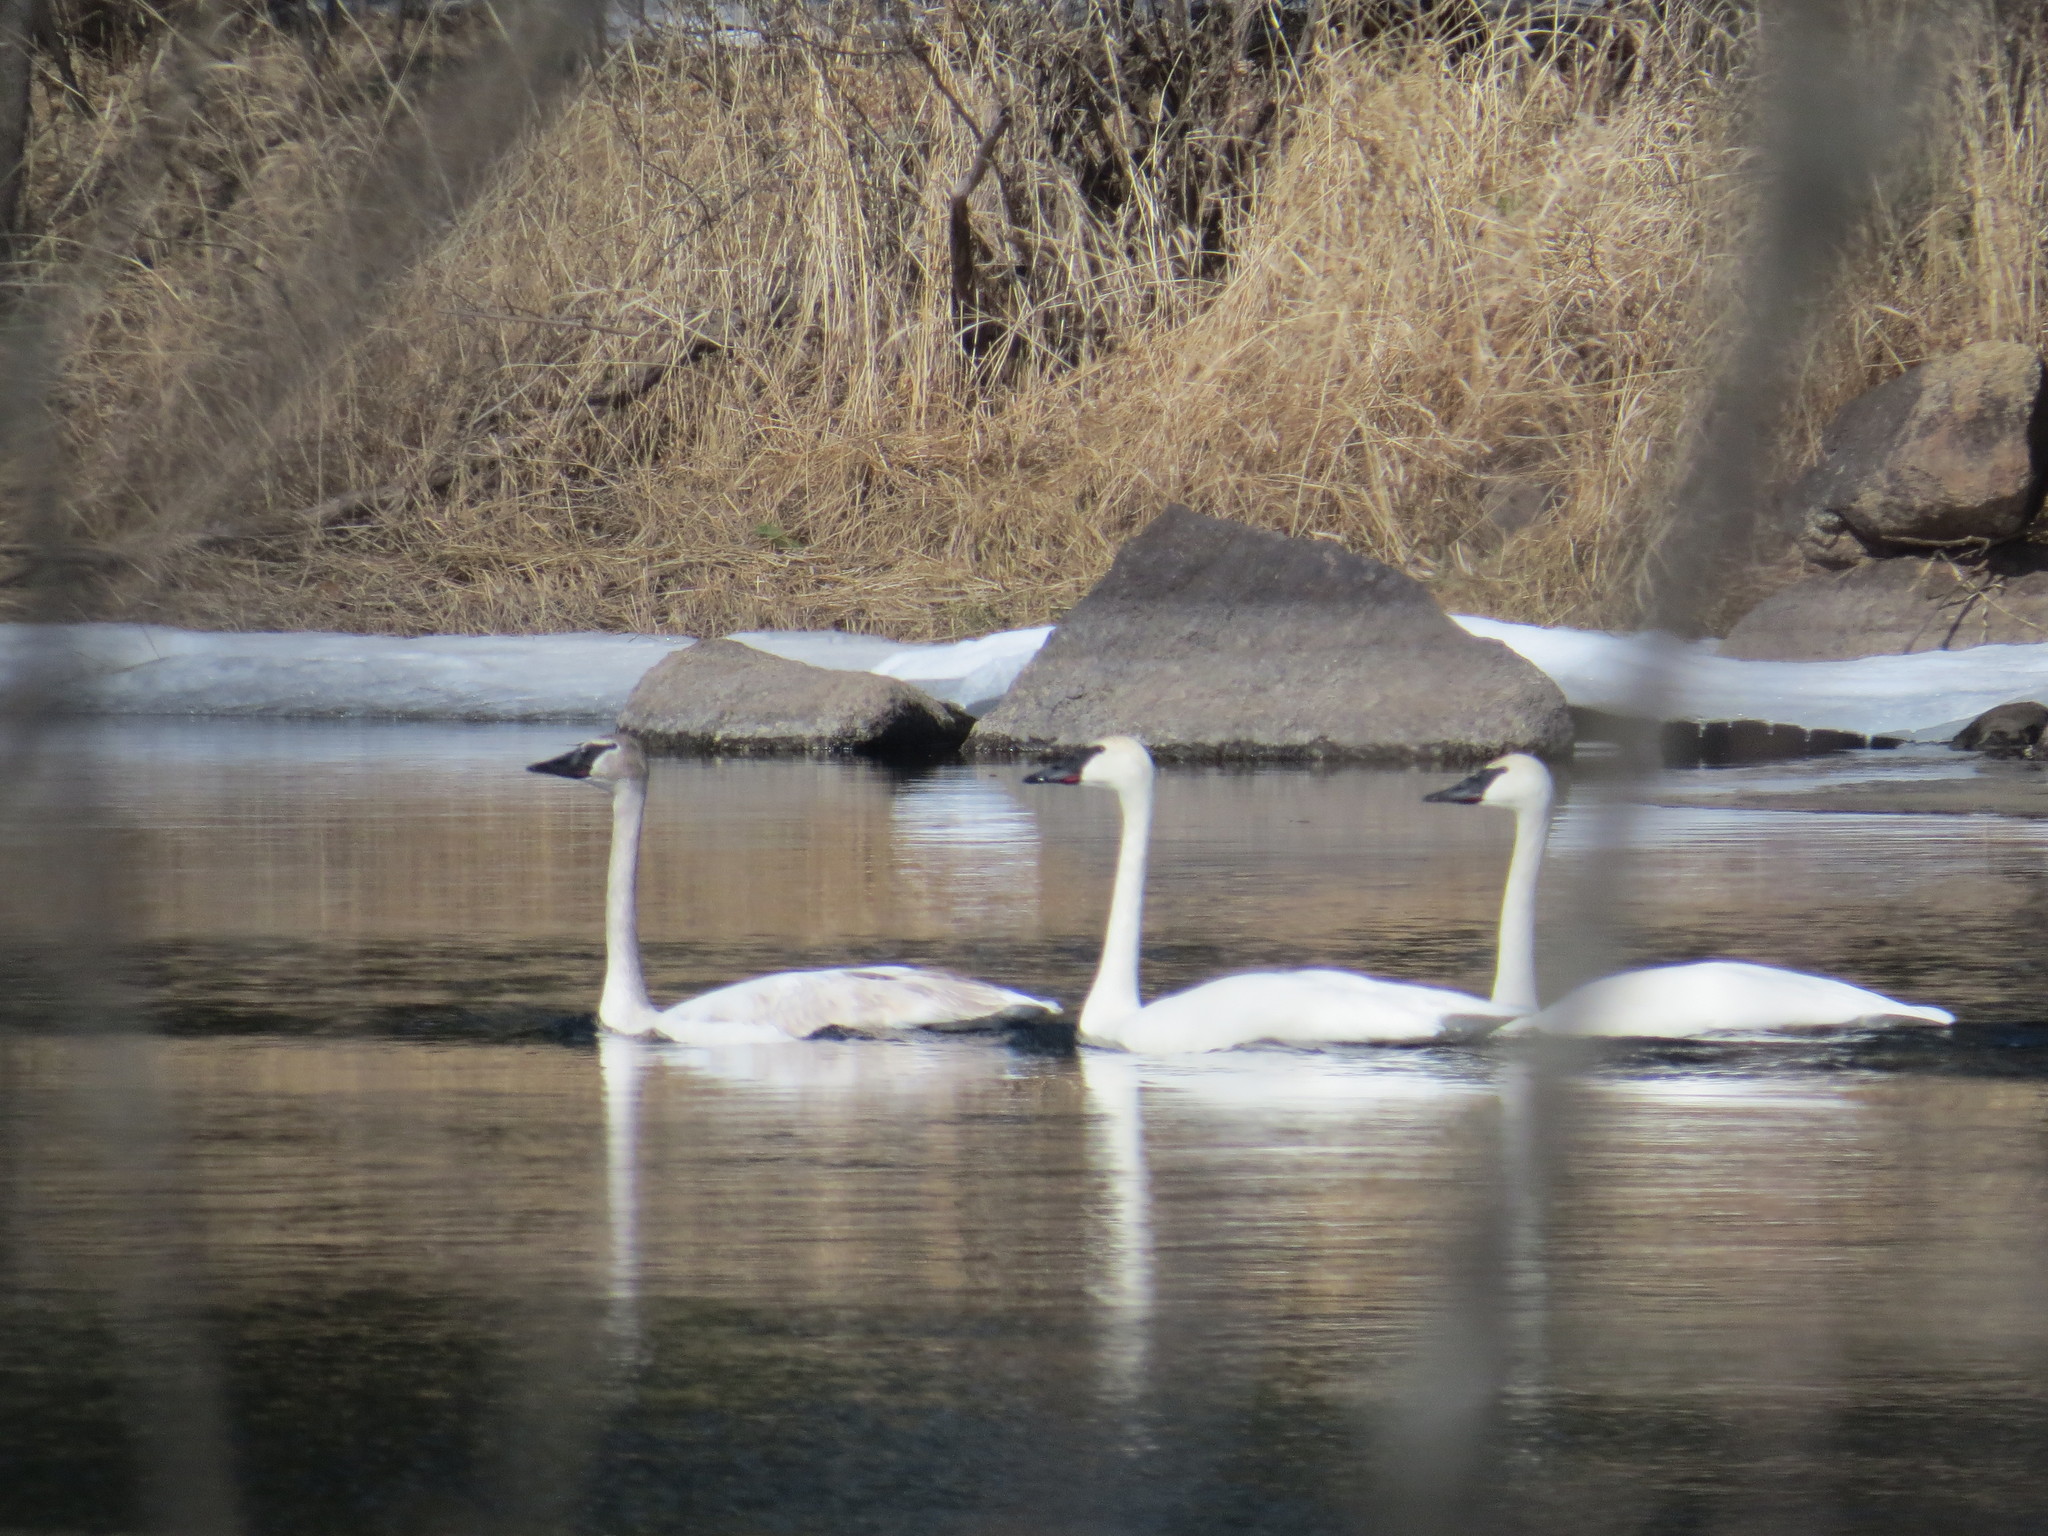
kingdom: Animalia
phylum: Chordata
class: Aves
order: Anseriformes
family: Anatidae
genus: Cygnus
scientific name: Cygnus buccinator
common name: Trumpeter swan
